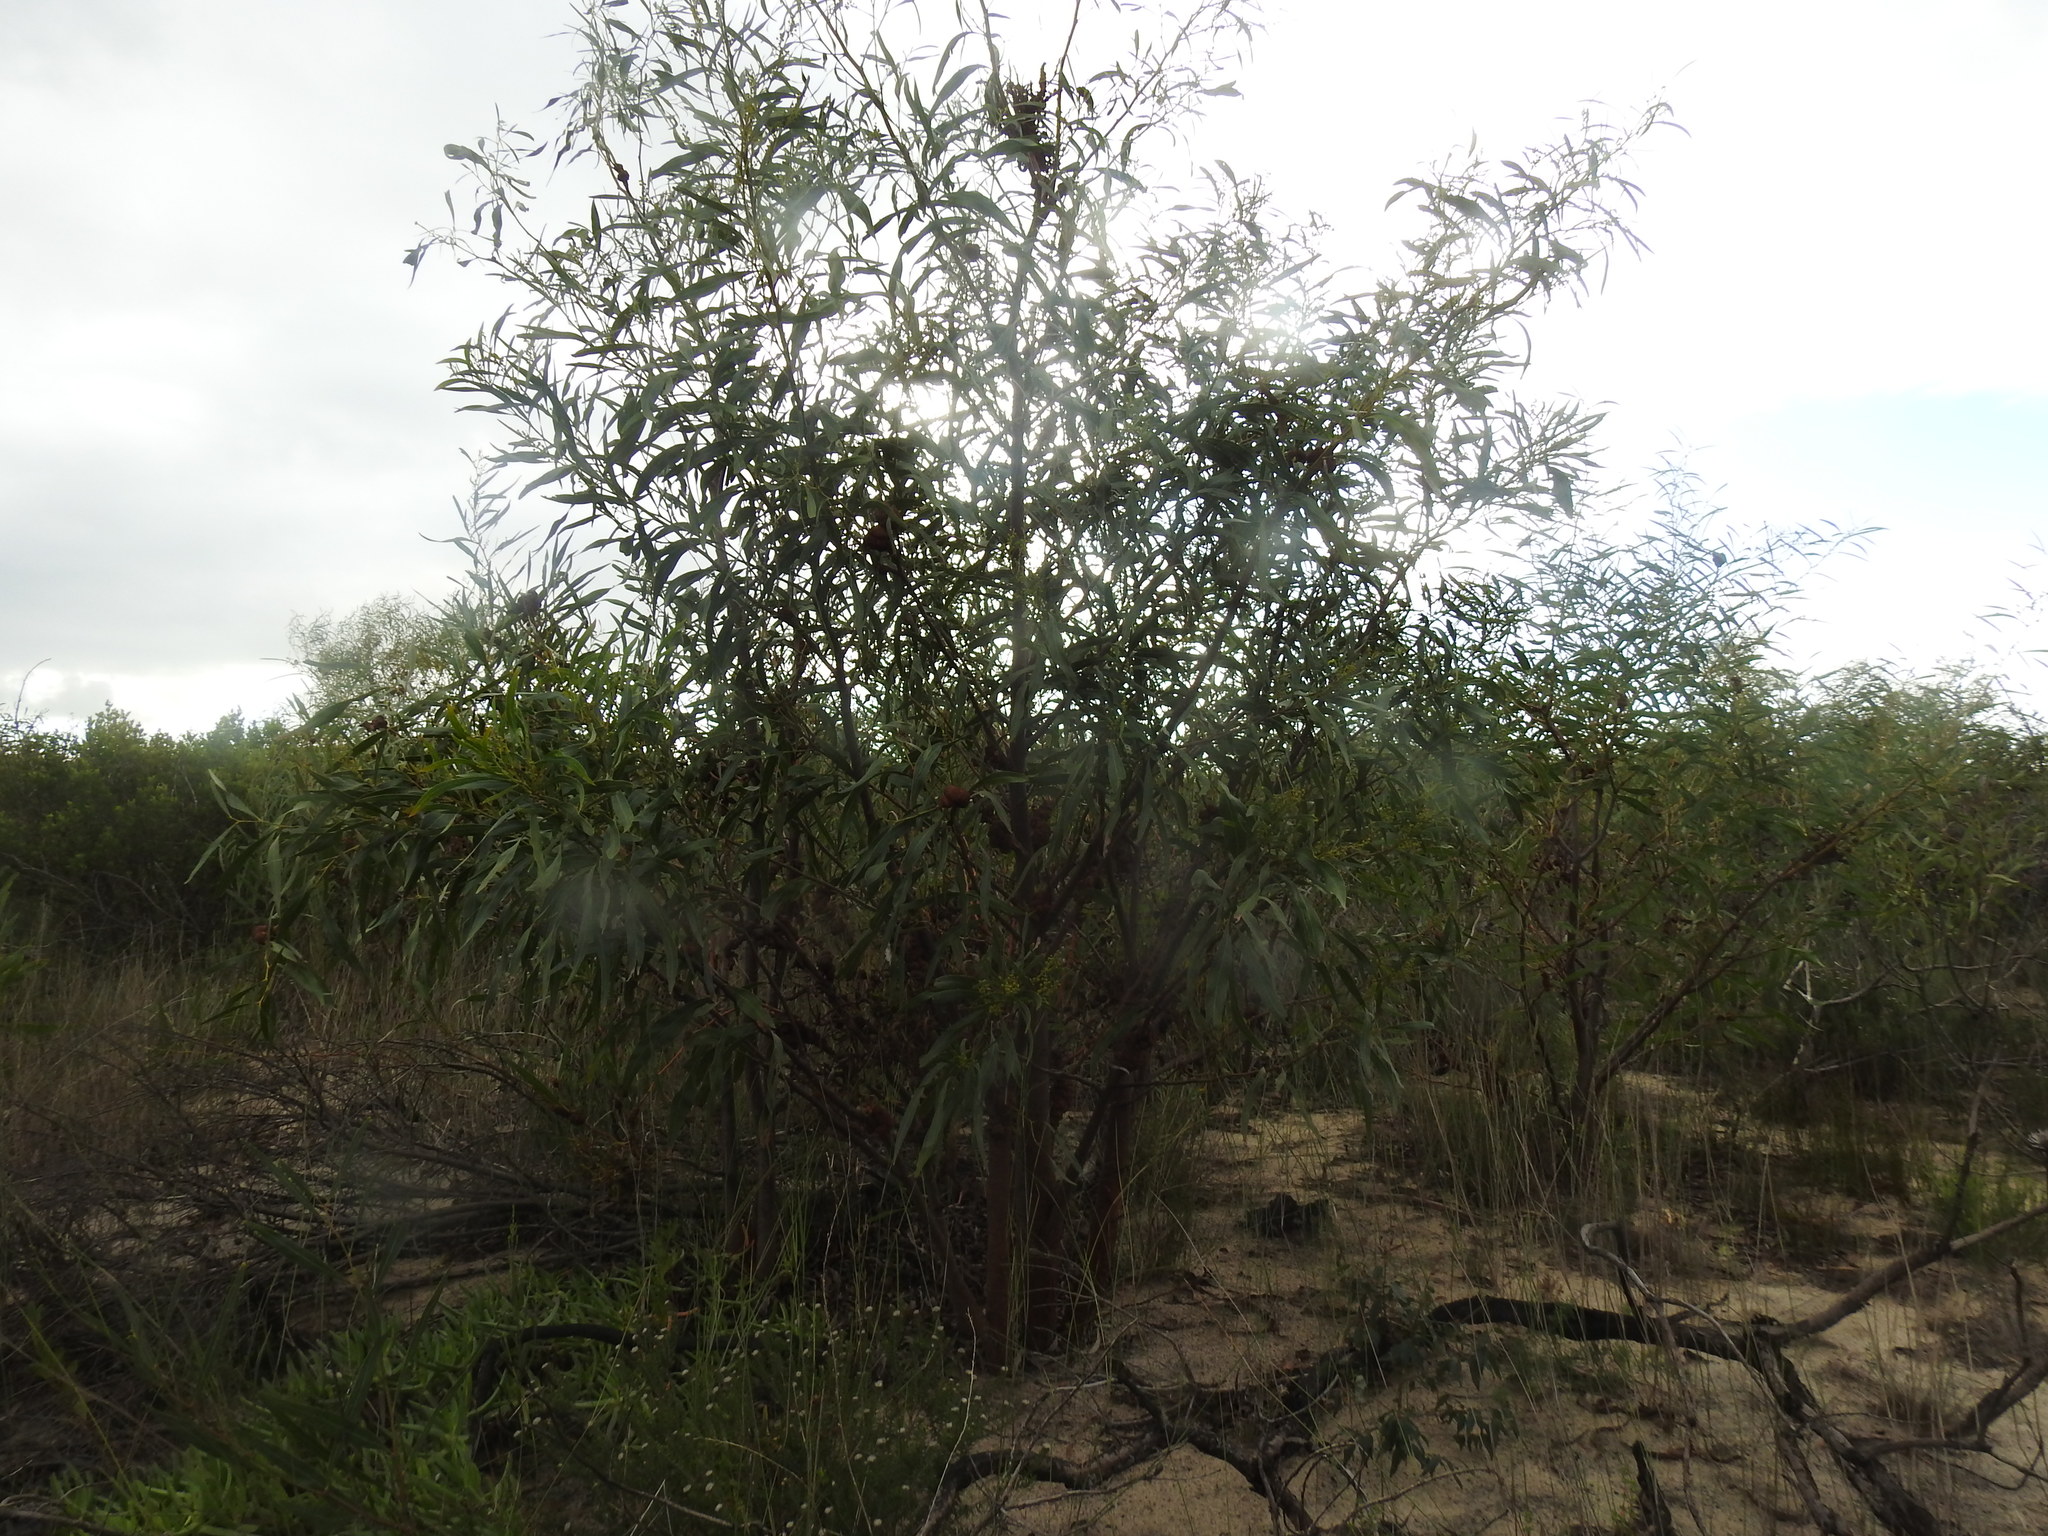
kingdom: Plantae
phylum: Tracheophyta
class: Magnoliopsida
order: Fabales
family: Fabaceae
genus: Acacia
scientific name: Acacia saligna
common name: Orange wattle
